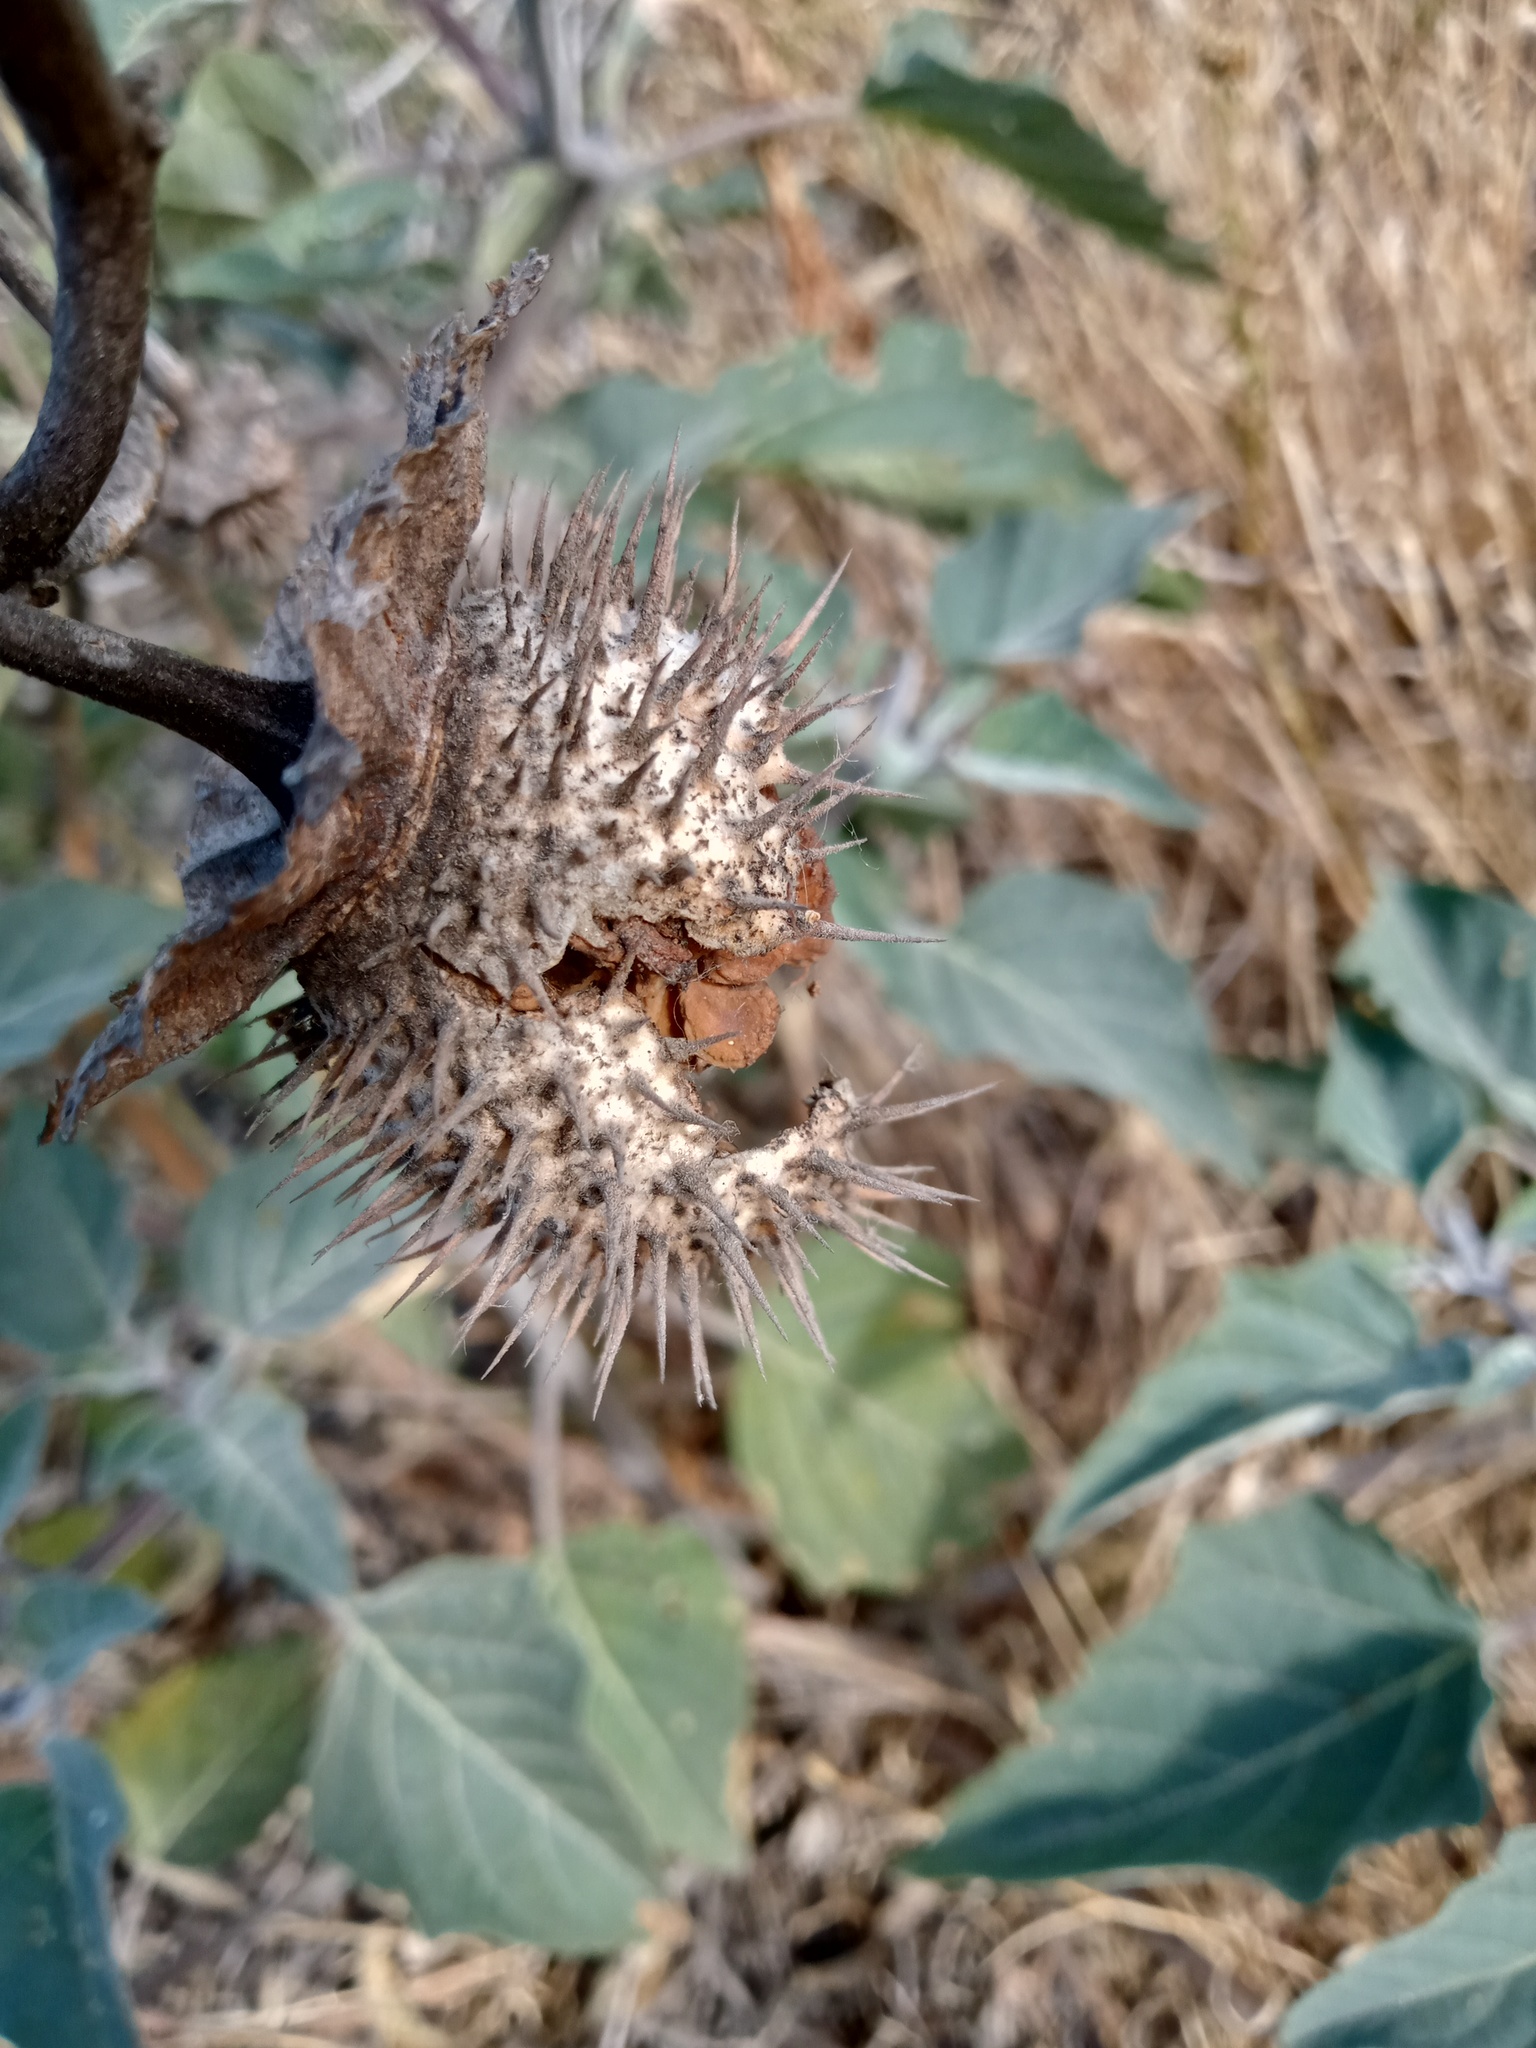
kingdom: Plantae
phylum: Tracheophyta
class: Magnoliopsida
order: Solanales
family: Solanaceae
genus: Datura
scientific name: Datura wrightii
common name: Sacred thorn-apple
